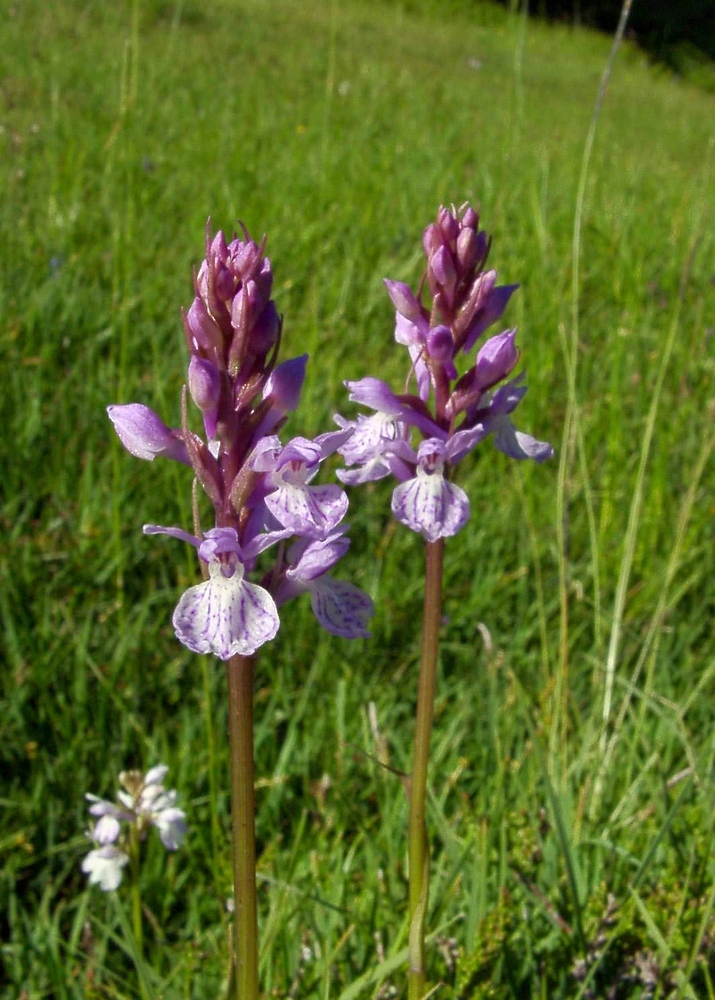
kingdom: Plantae
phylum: Tracheophyta
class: Liliopsida
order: Asparagales
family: Orchidaceae
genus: Dactylorhiza
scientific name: Dactylorhiza maculata
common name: Heath spotted-orchid
